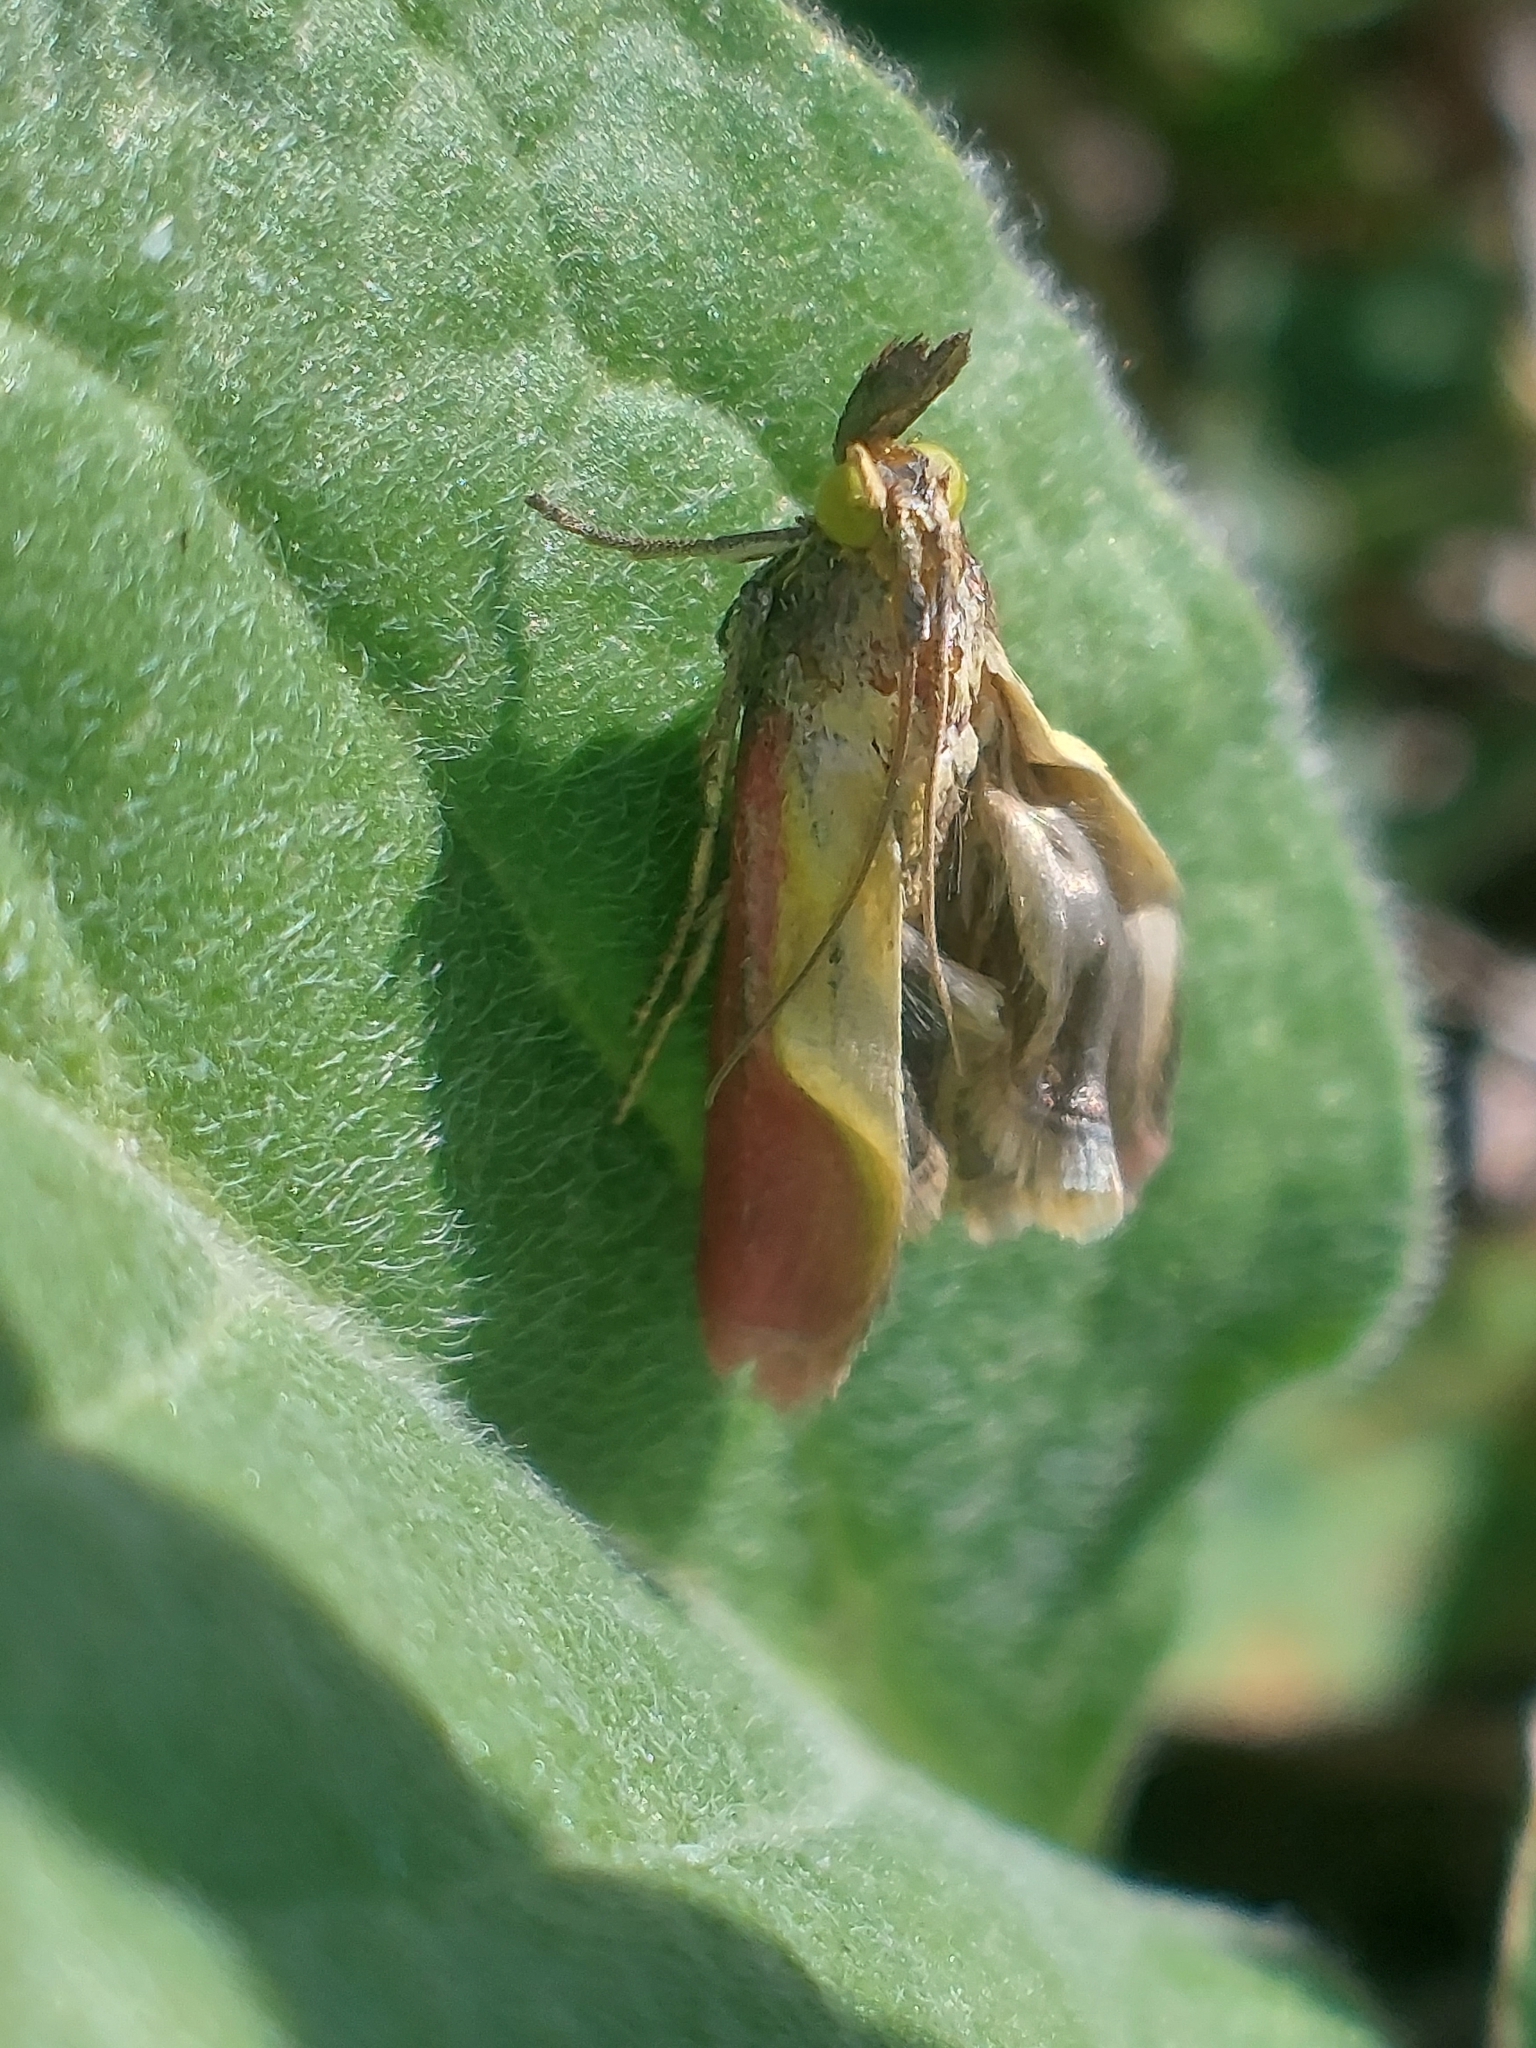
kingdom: Animalia
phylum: Arthropoda
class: Insecta
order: Lepidoptera
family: Pyralidae
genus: Oncocera
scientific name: Oncocera semirubella
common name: Rosy-striped knot-horn
